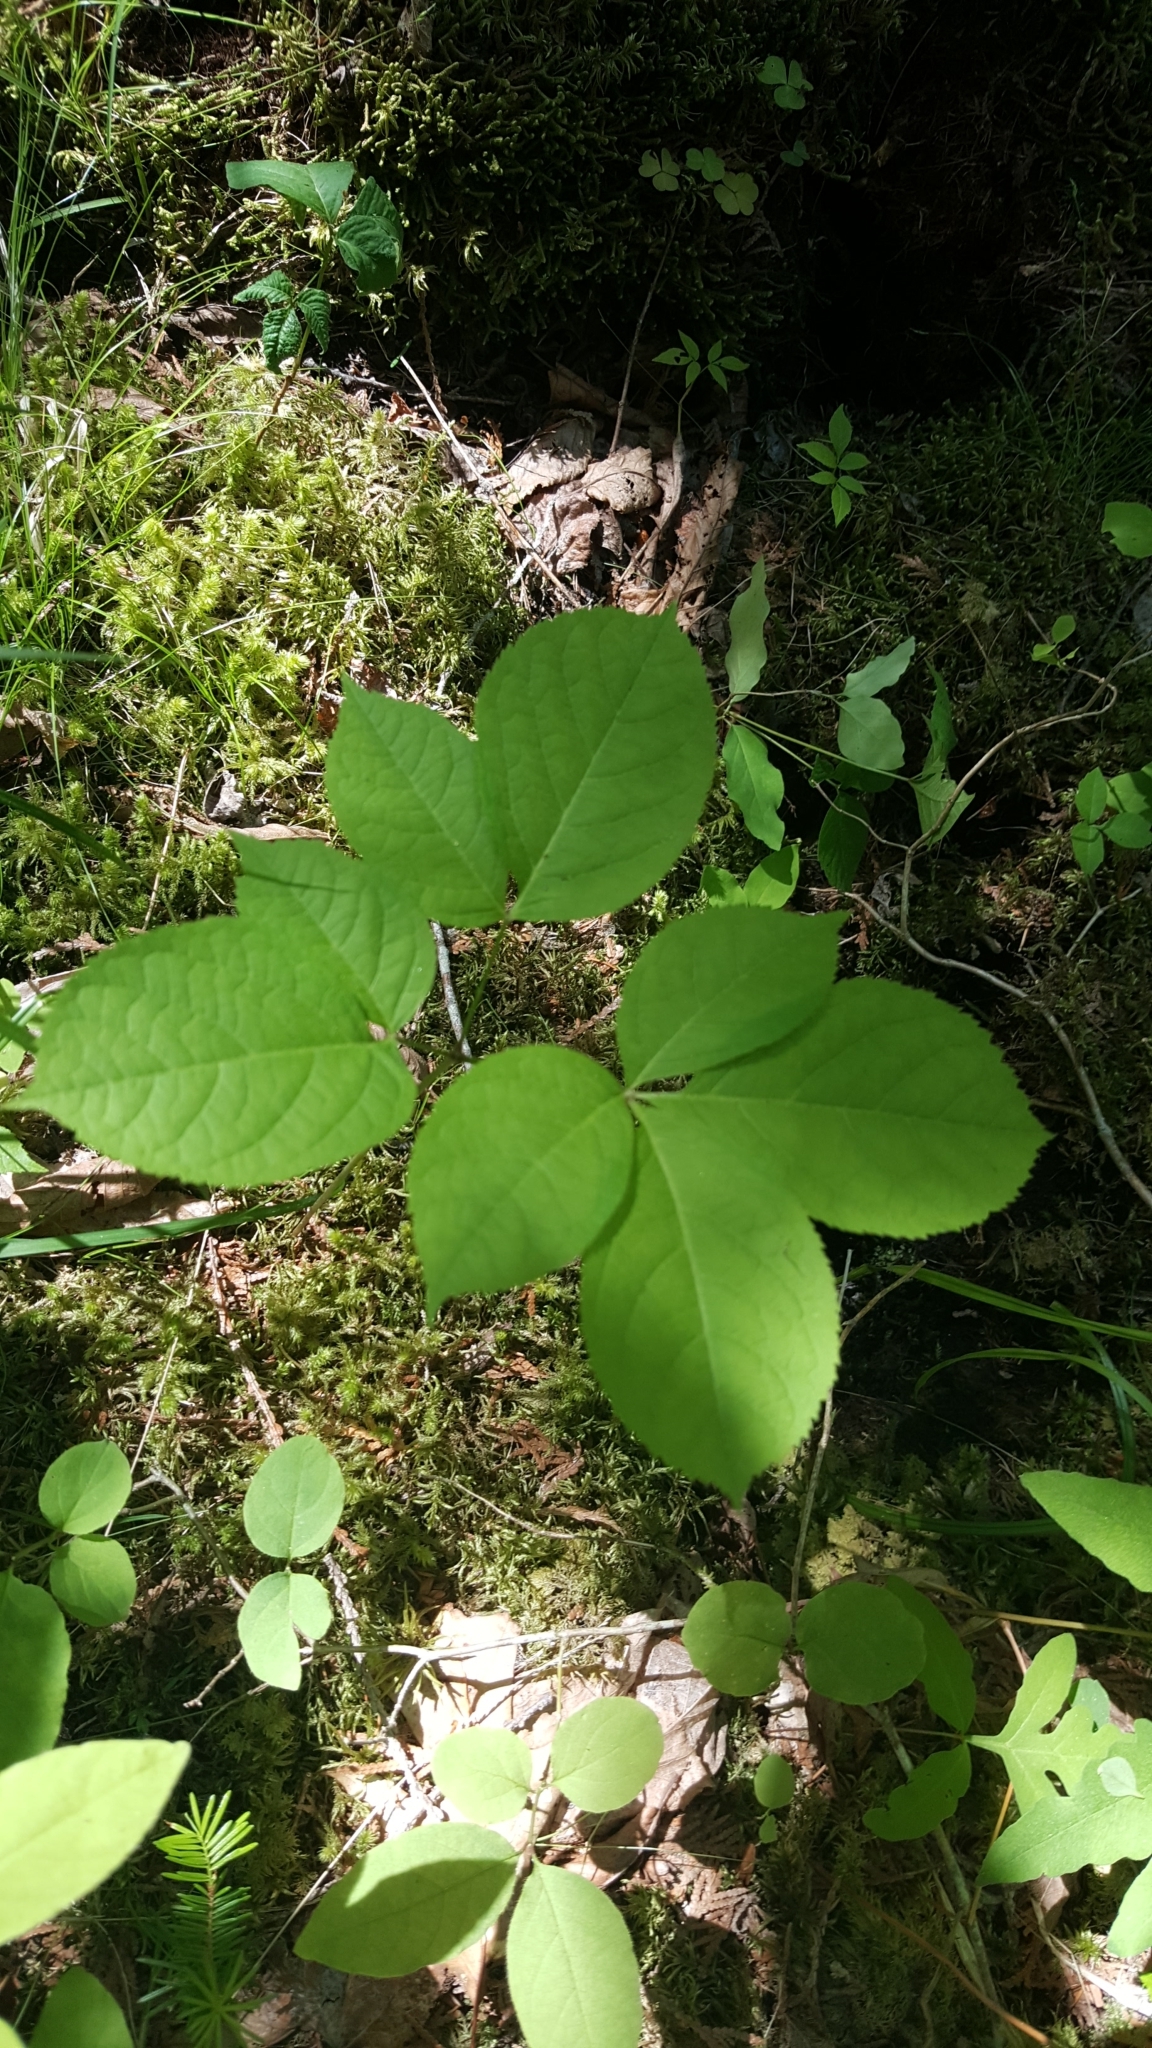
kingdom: Plantae
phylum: Tracheophyta
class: Magnoliopsida
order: Apiales
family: Araliaceae
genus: Aralia
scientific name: Aralia nudicaulis
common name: Wild sarsaparilla
